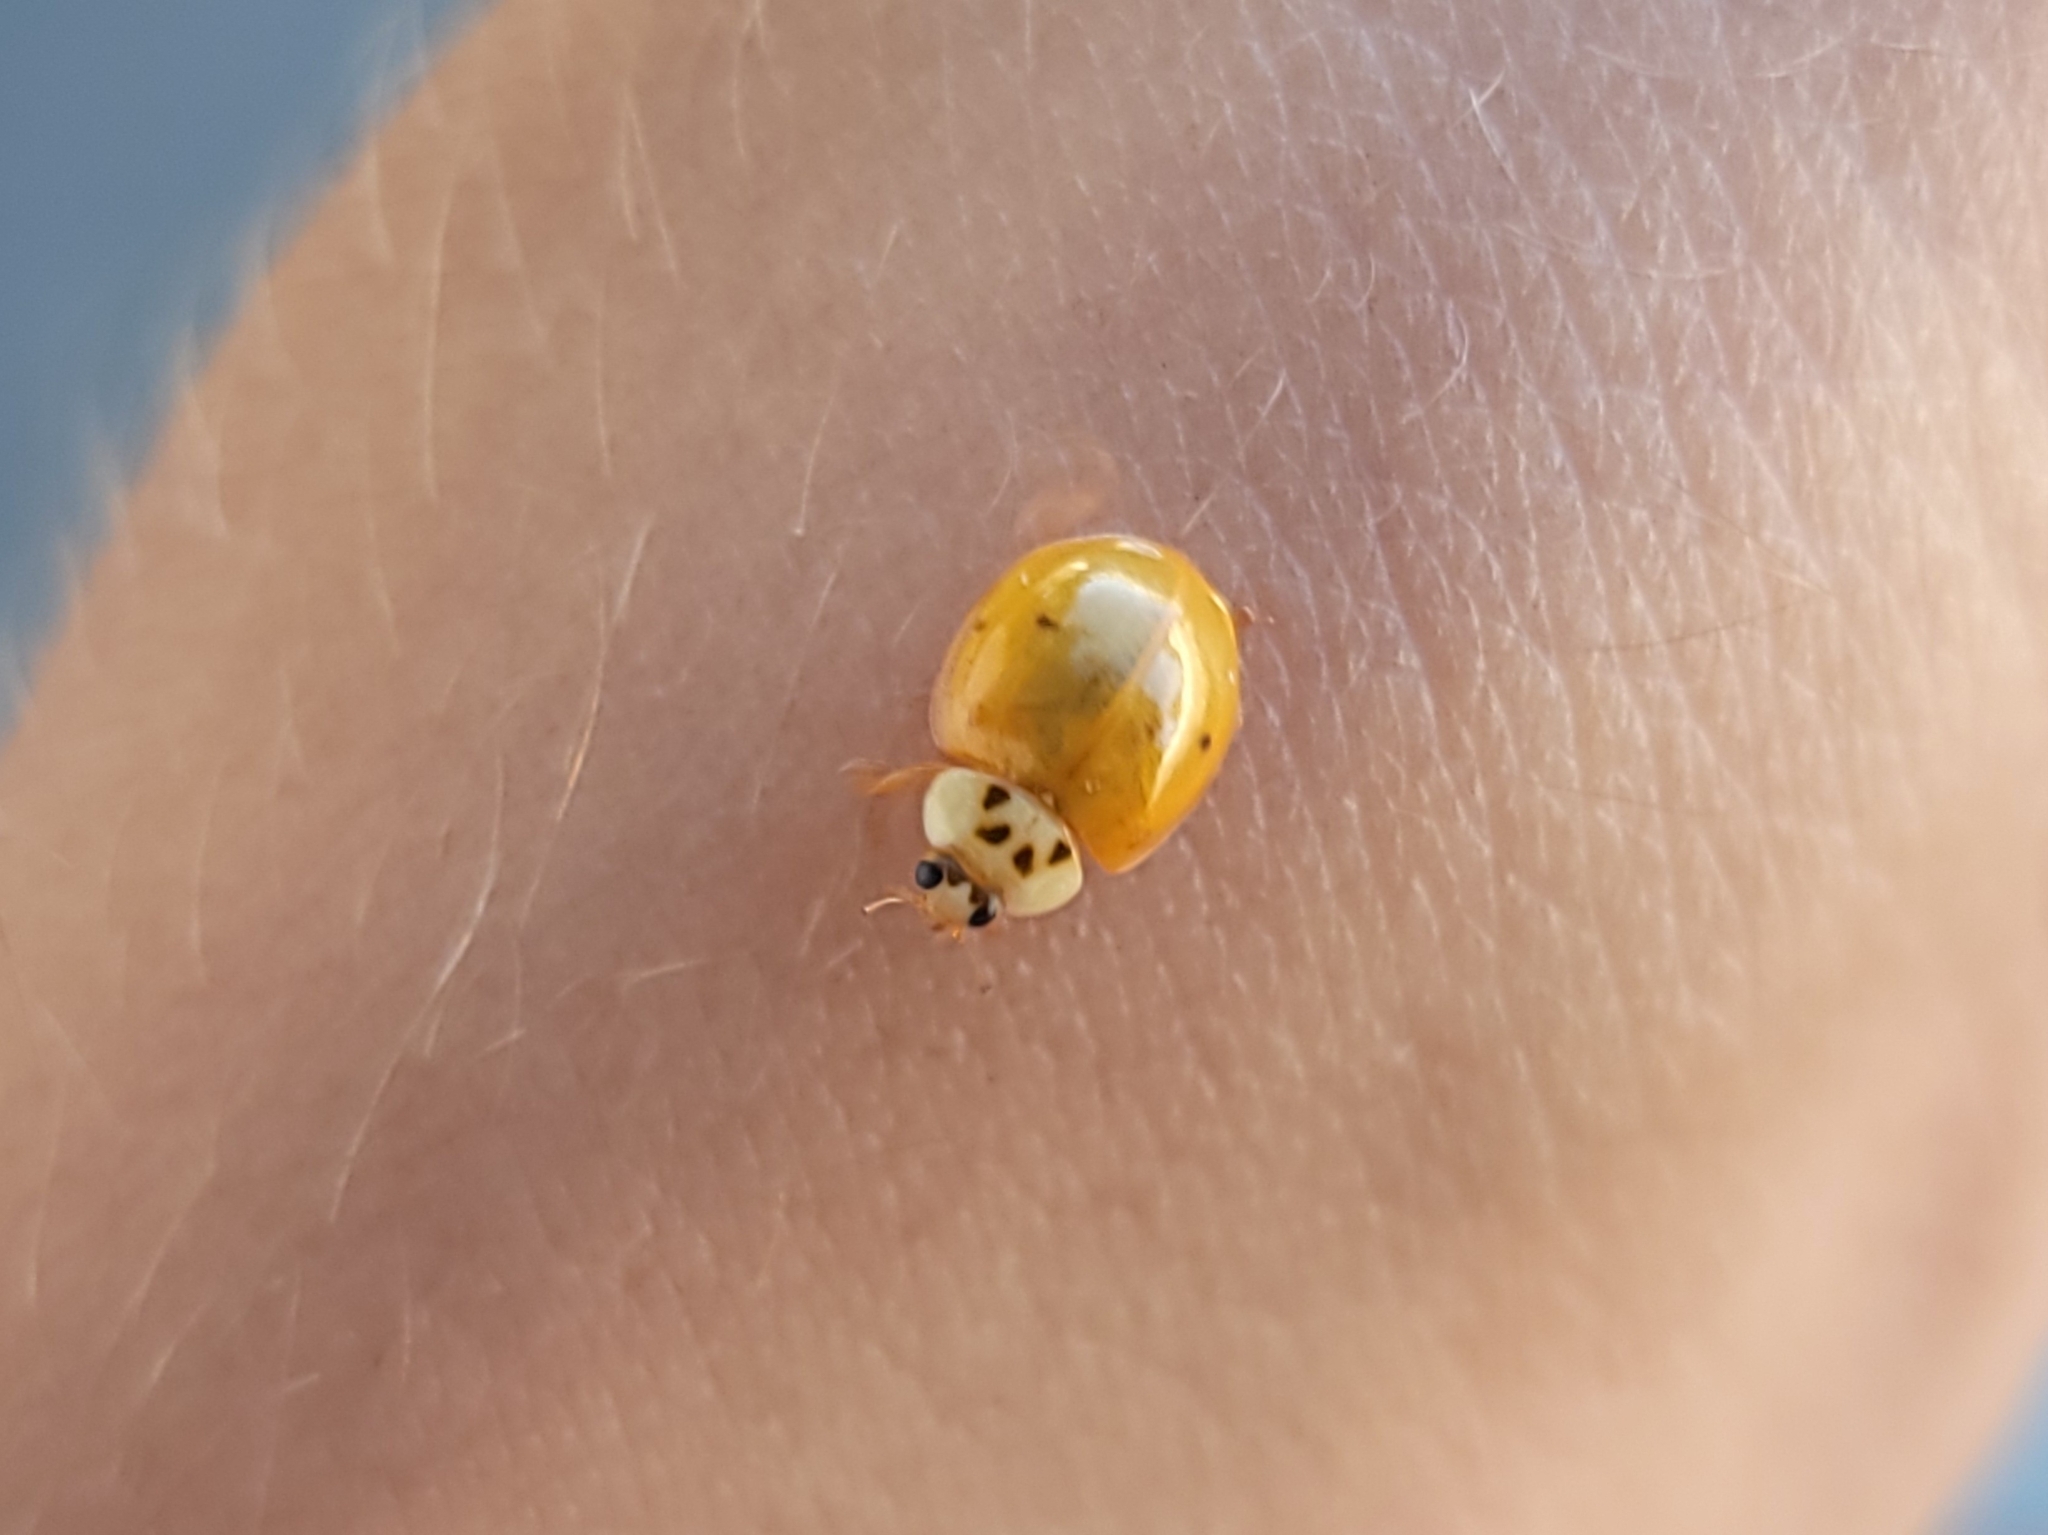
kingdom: Animalia
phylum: Arthropoda
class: Insecta
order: Coleoptera
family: Coccinellidae
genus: Harmonia
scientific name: Harmonia axyridis
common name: Harlequin ladybird
